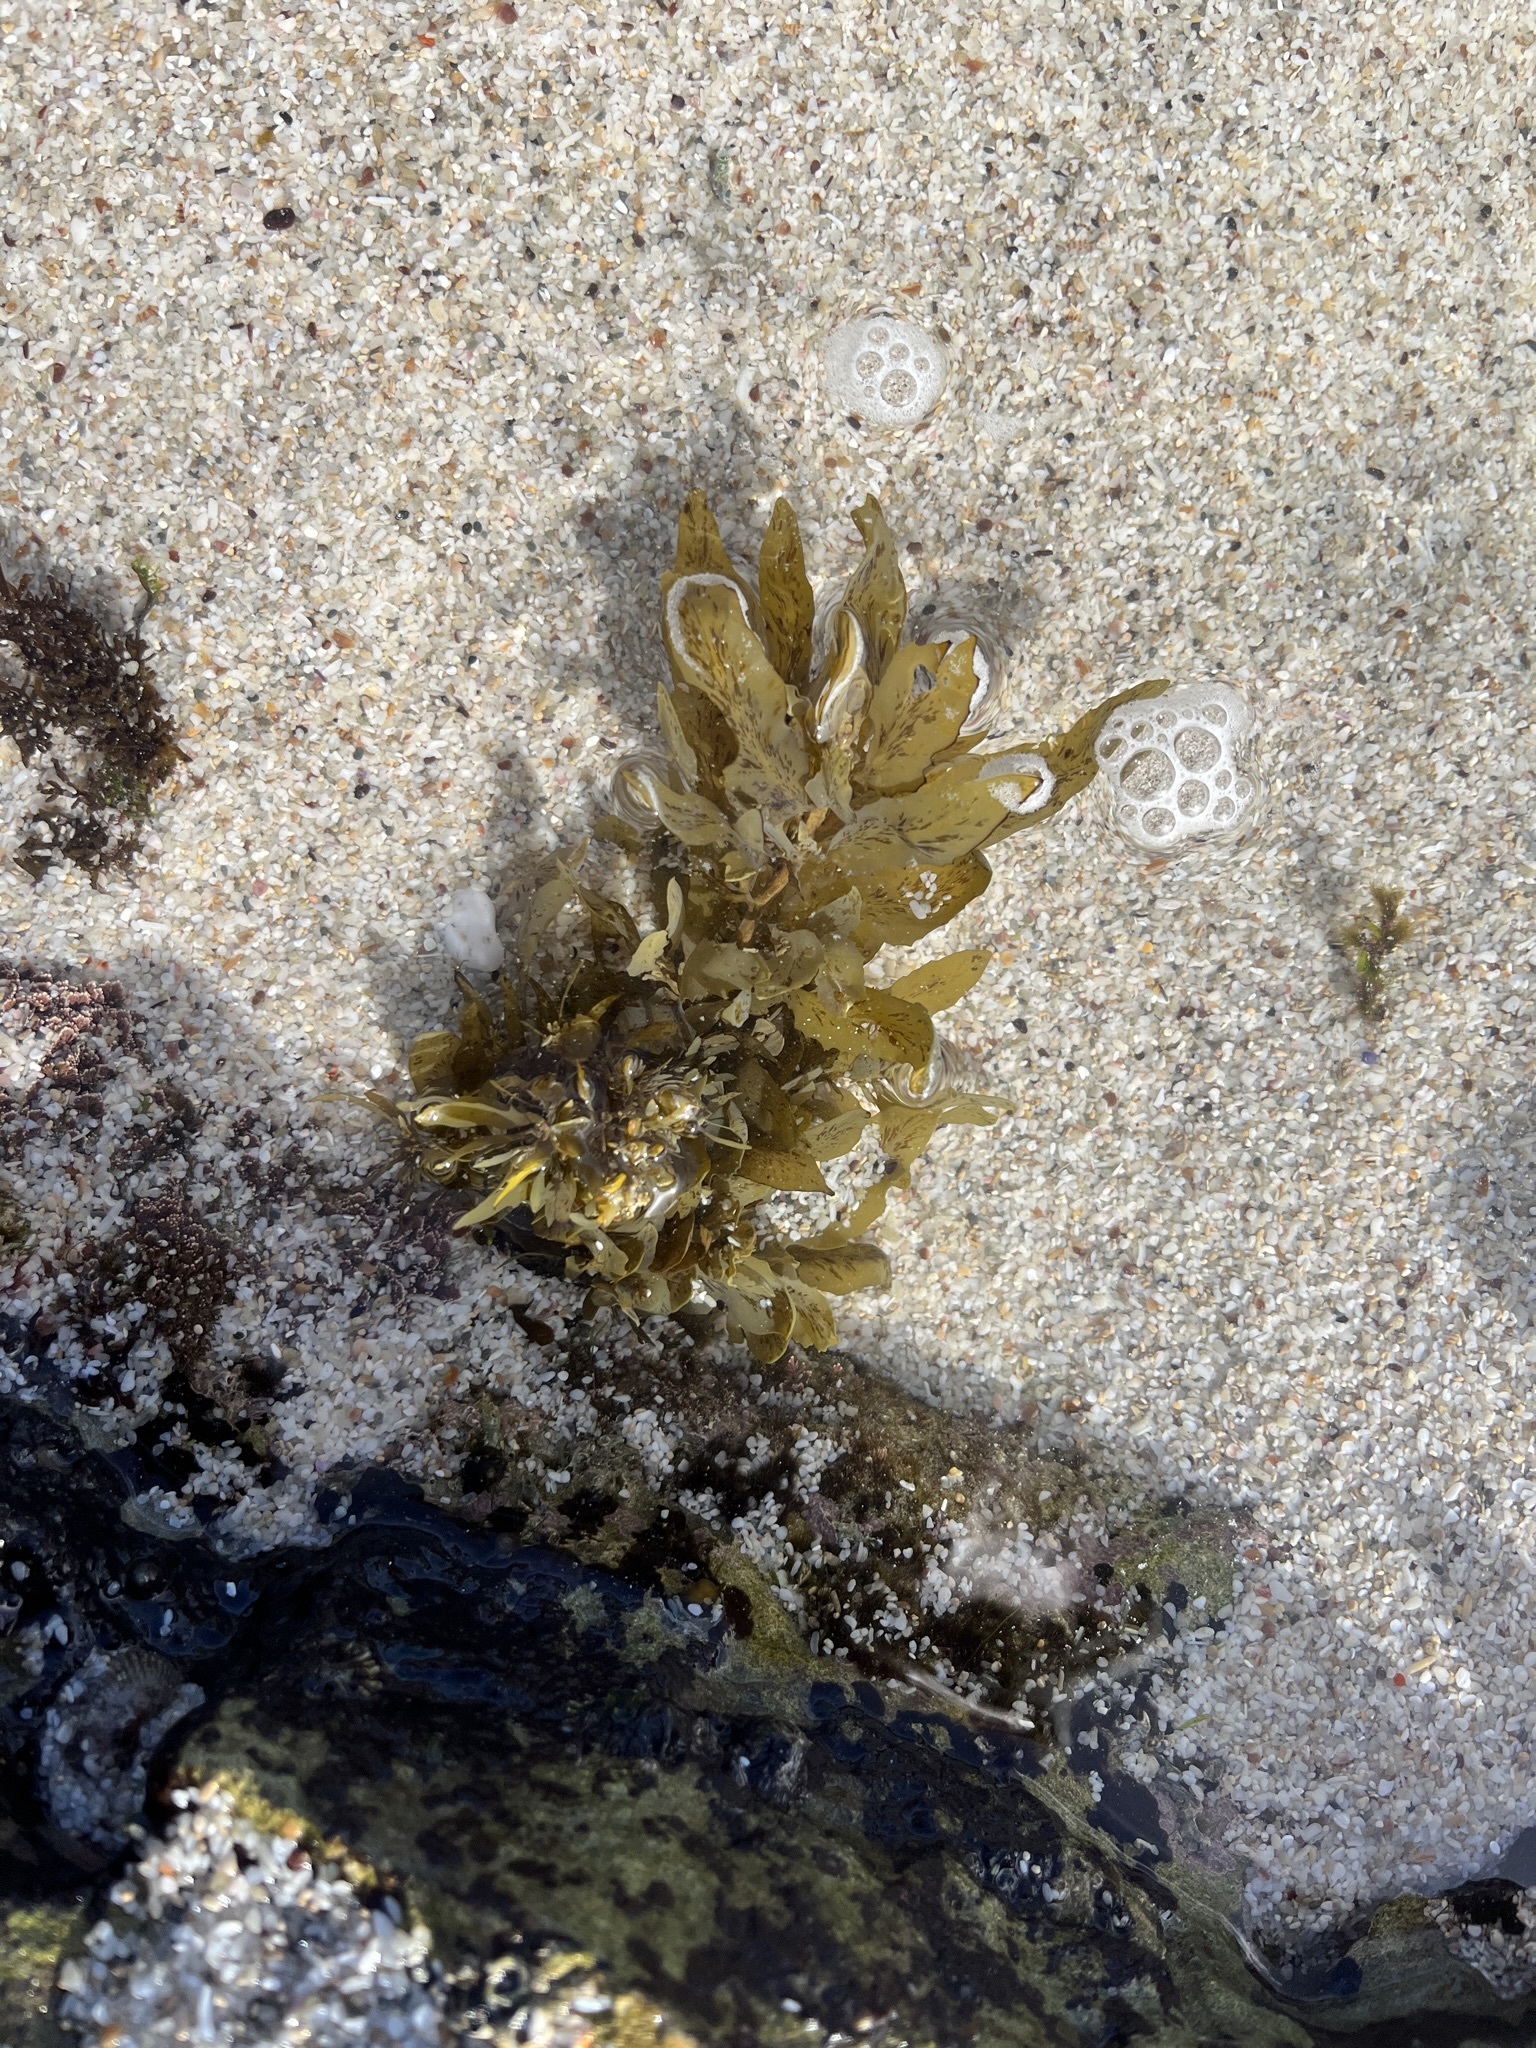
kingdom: Chromista
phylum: Ochrophyta
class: Phaeophyceae
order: Fucales
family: Sargassaceae
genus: Sargassum
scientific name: Sargassum incisifolium
